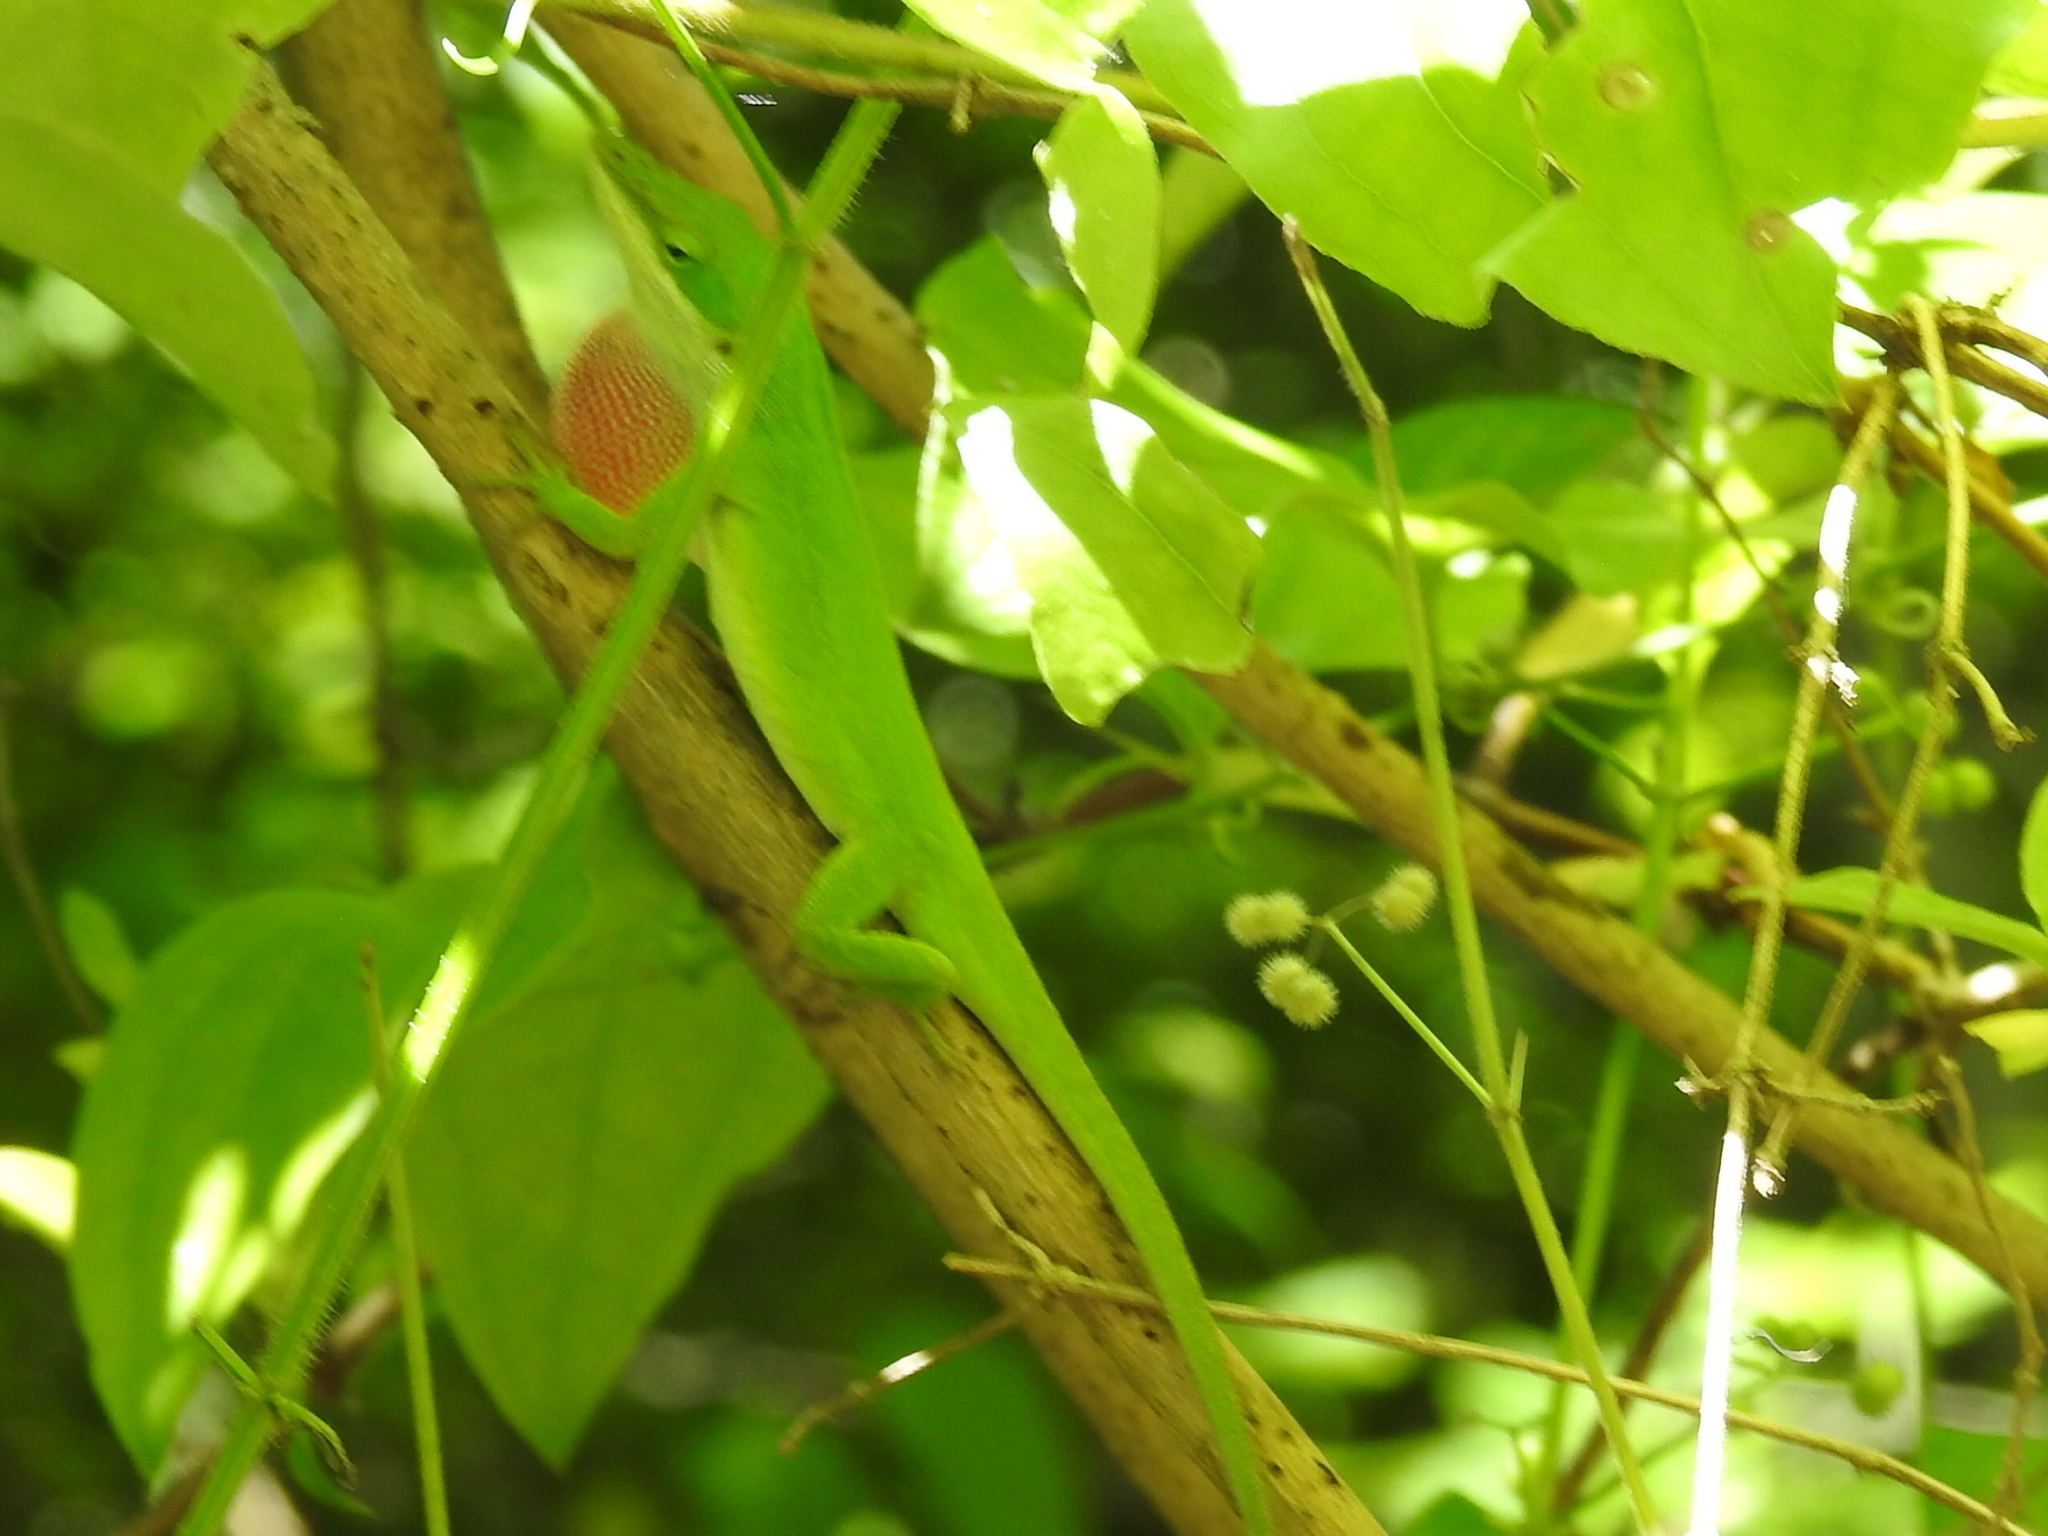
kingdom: Animalia
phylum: Chordata
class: Squamata
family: Dactyloidae
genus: Anolis
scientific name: Anolis carolinensis
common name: Green anole
